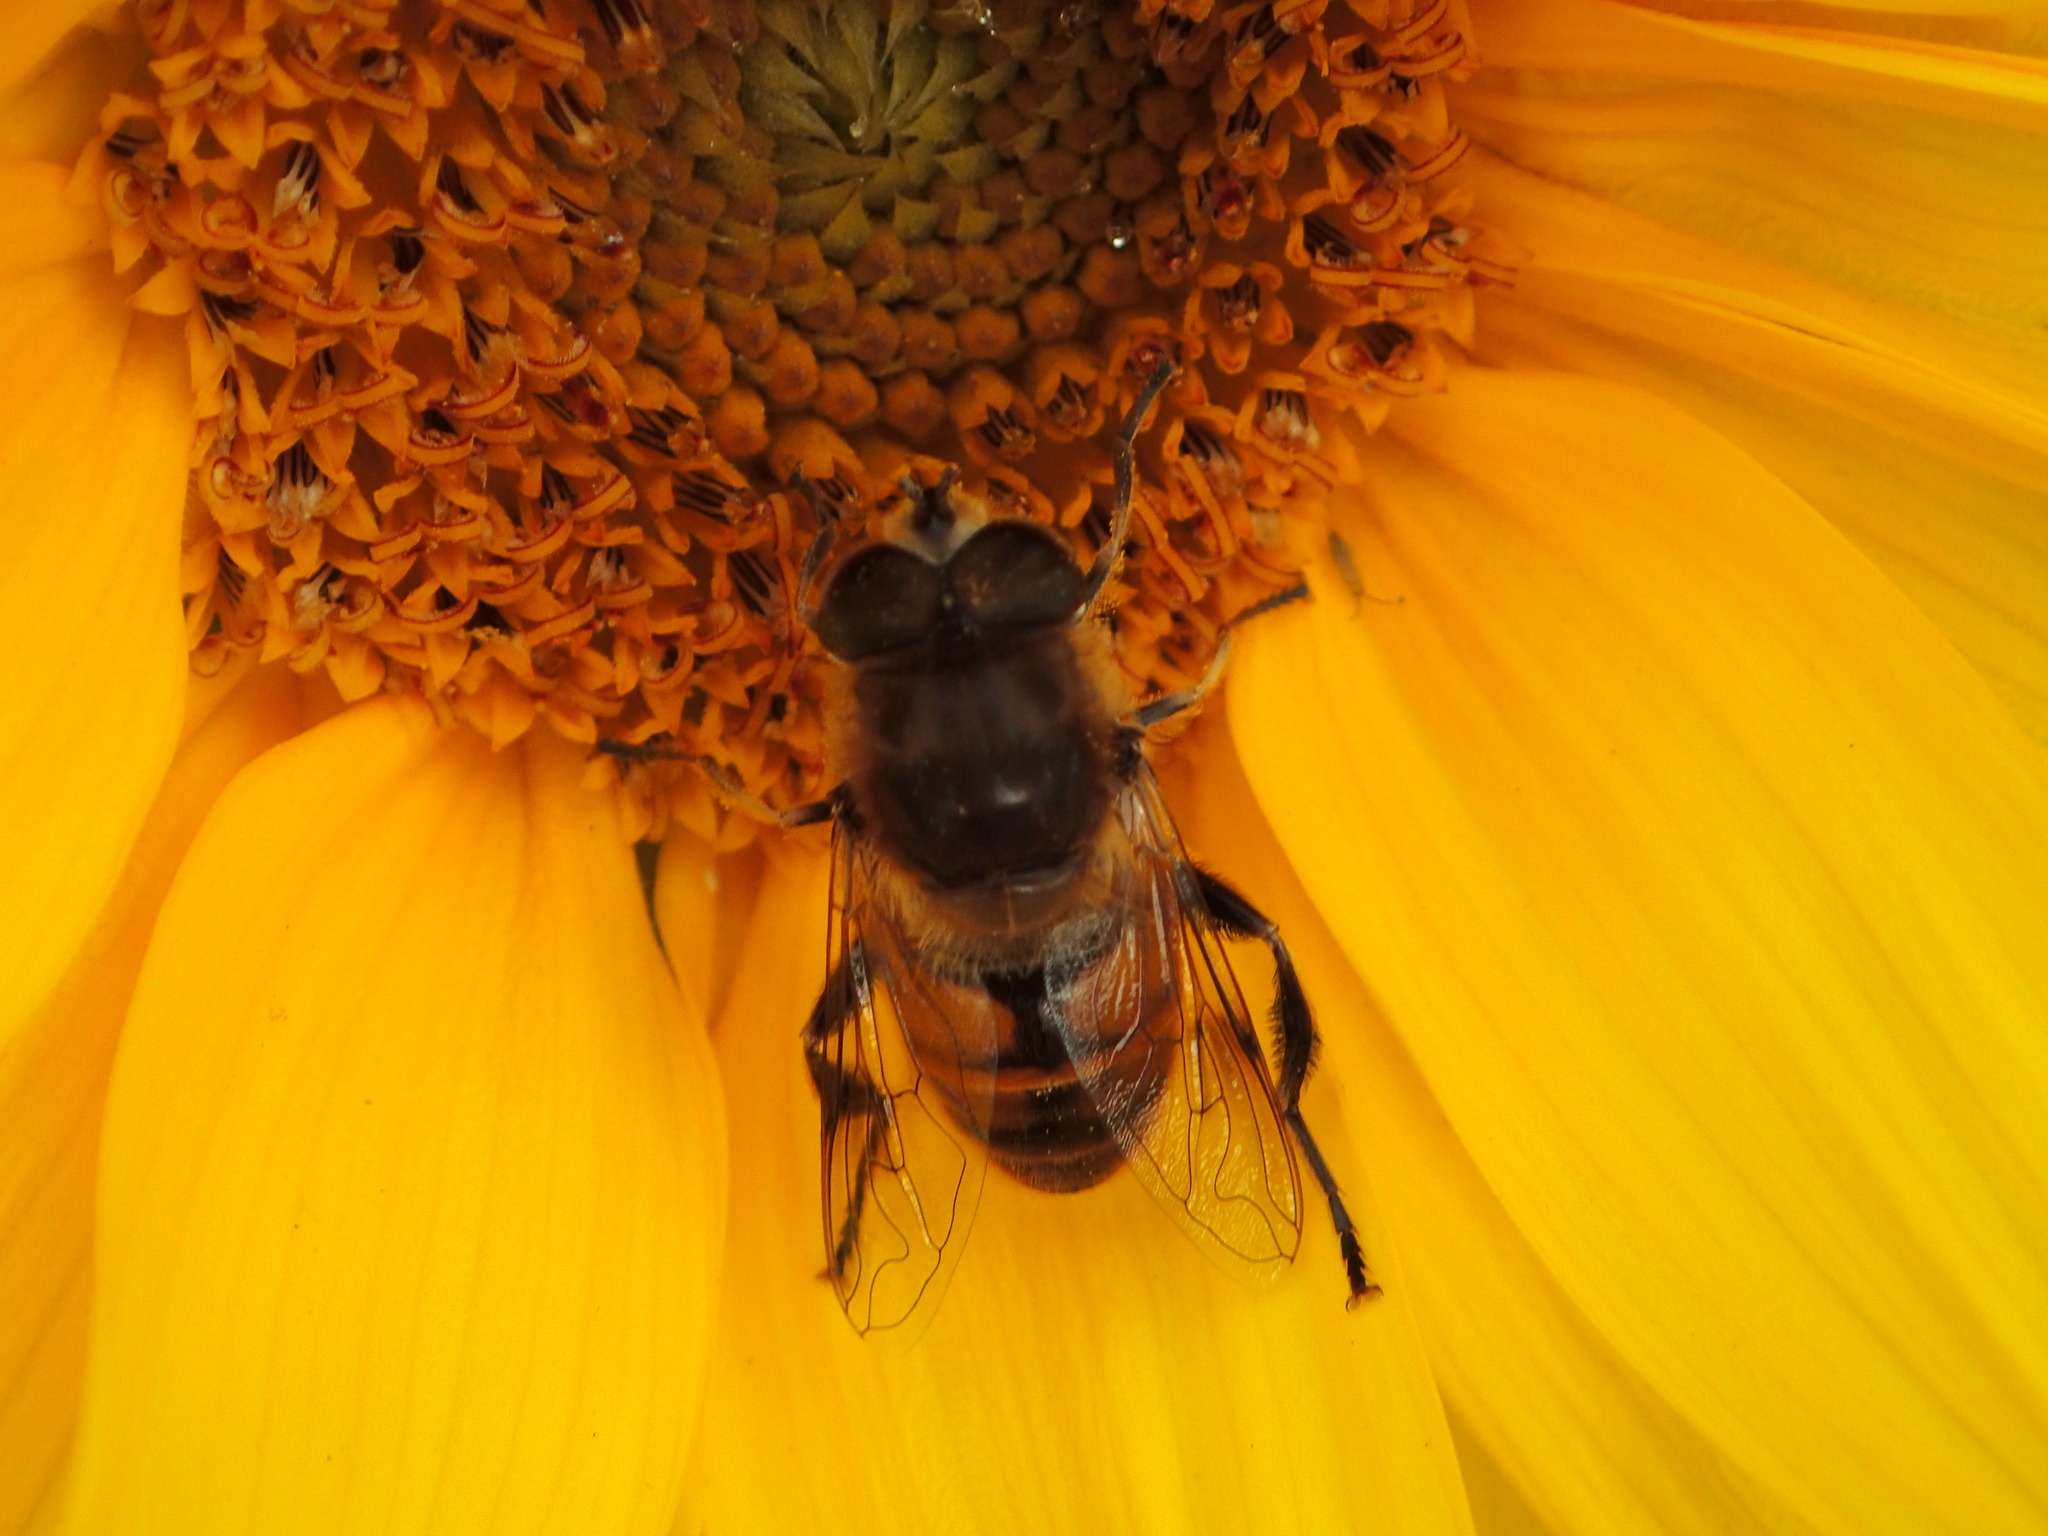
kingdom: Animalia
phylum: Arthropoda
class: Insecta
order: Diptera
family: Syrphidae
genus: Eristalis
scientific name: Eristalis tenax
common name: Drone fly
